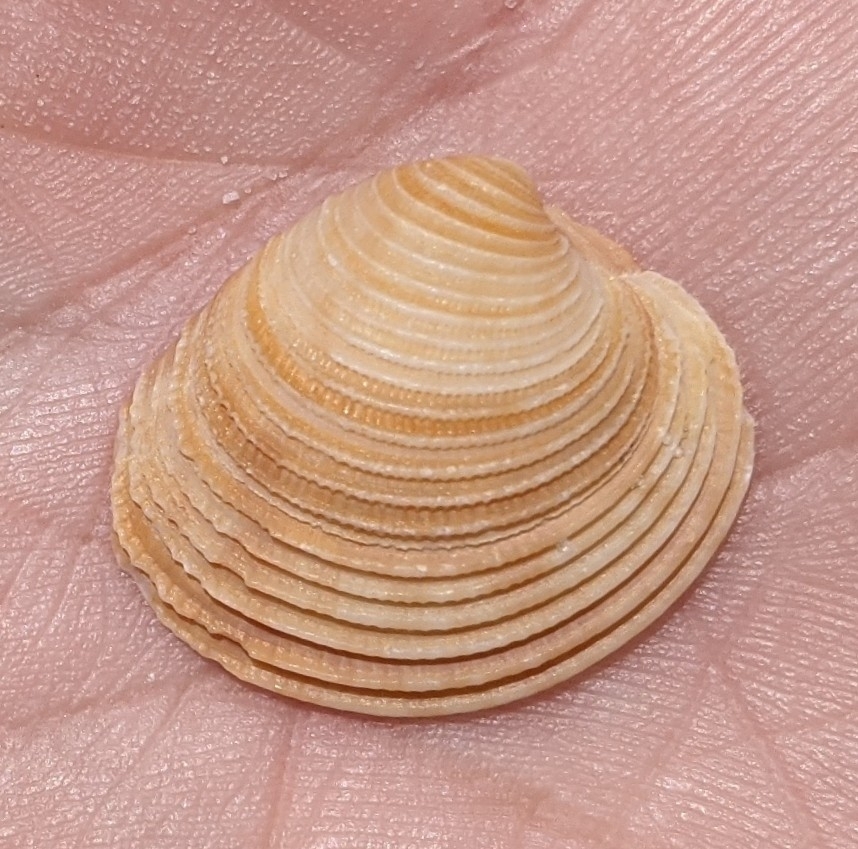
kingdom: Animalia
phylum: Mollusca
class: Bivalvia
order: Venerida
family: Veneridae
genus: Chionopsis
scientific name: Chionopsis intapurpurea
